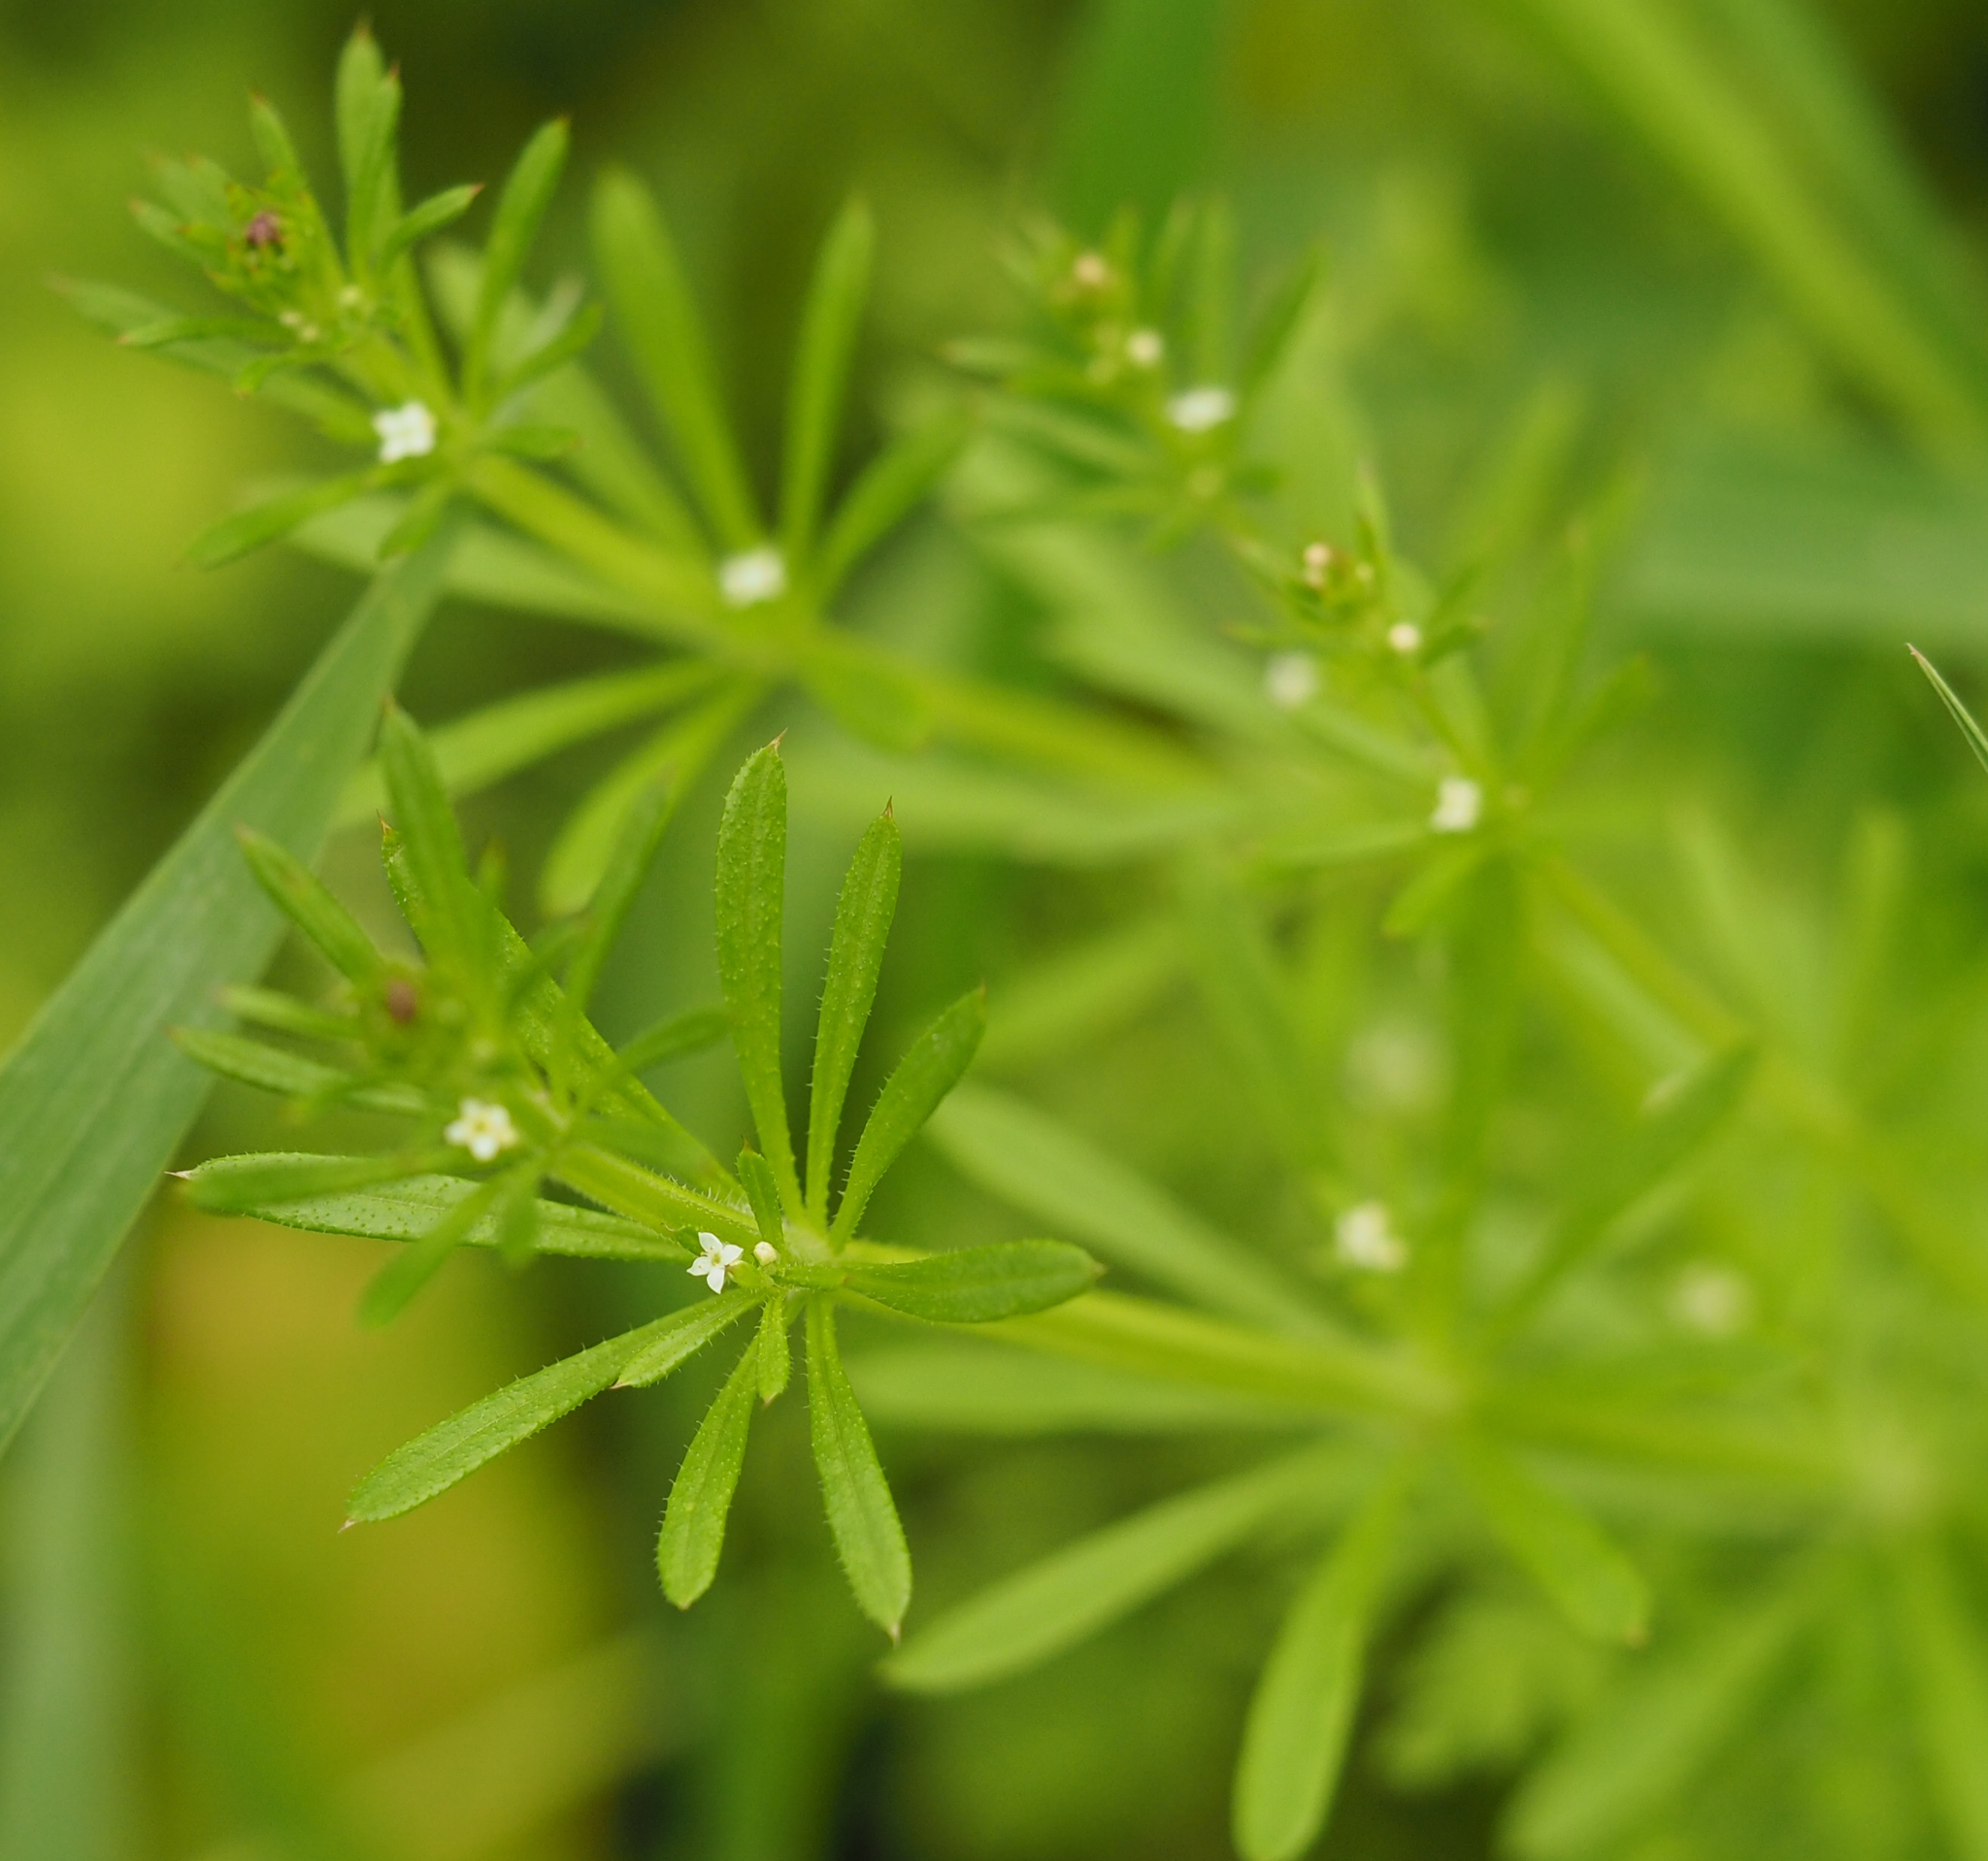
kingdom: Plantae
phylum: Tracheophyta
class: Magnoliopsida
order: Gentianales
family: Rubiaceae
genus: Galium
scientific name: Galium aparine
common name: Cleavers
